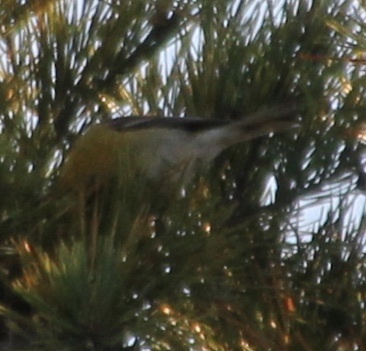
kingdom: Animalia
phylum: Chordata
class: Aves
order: Passeriformes
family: Parulidae
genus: Setophaga
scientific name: Setophaga pinus
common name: Pine warbler
